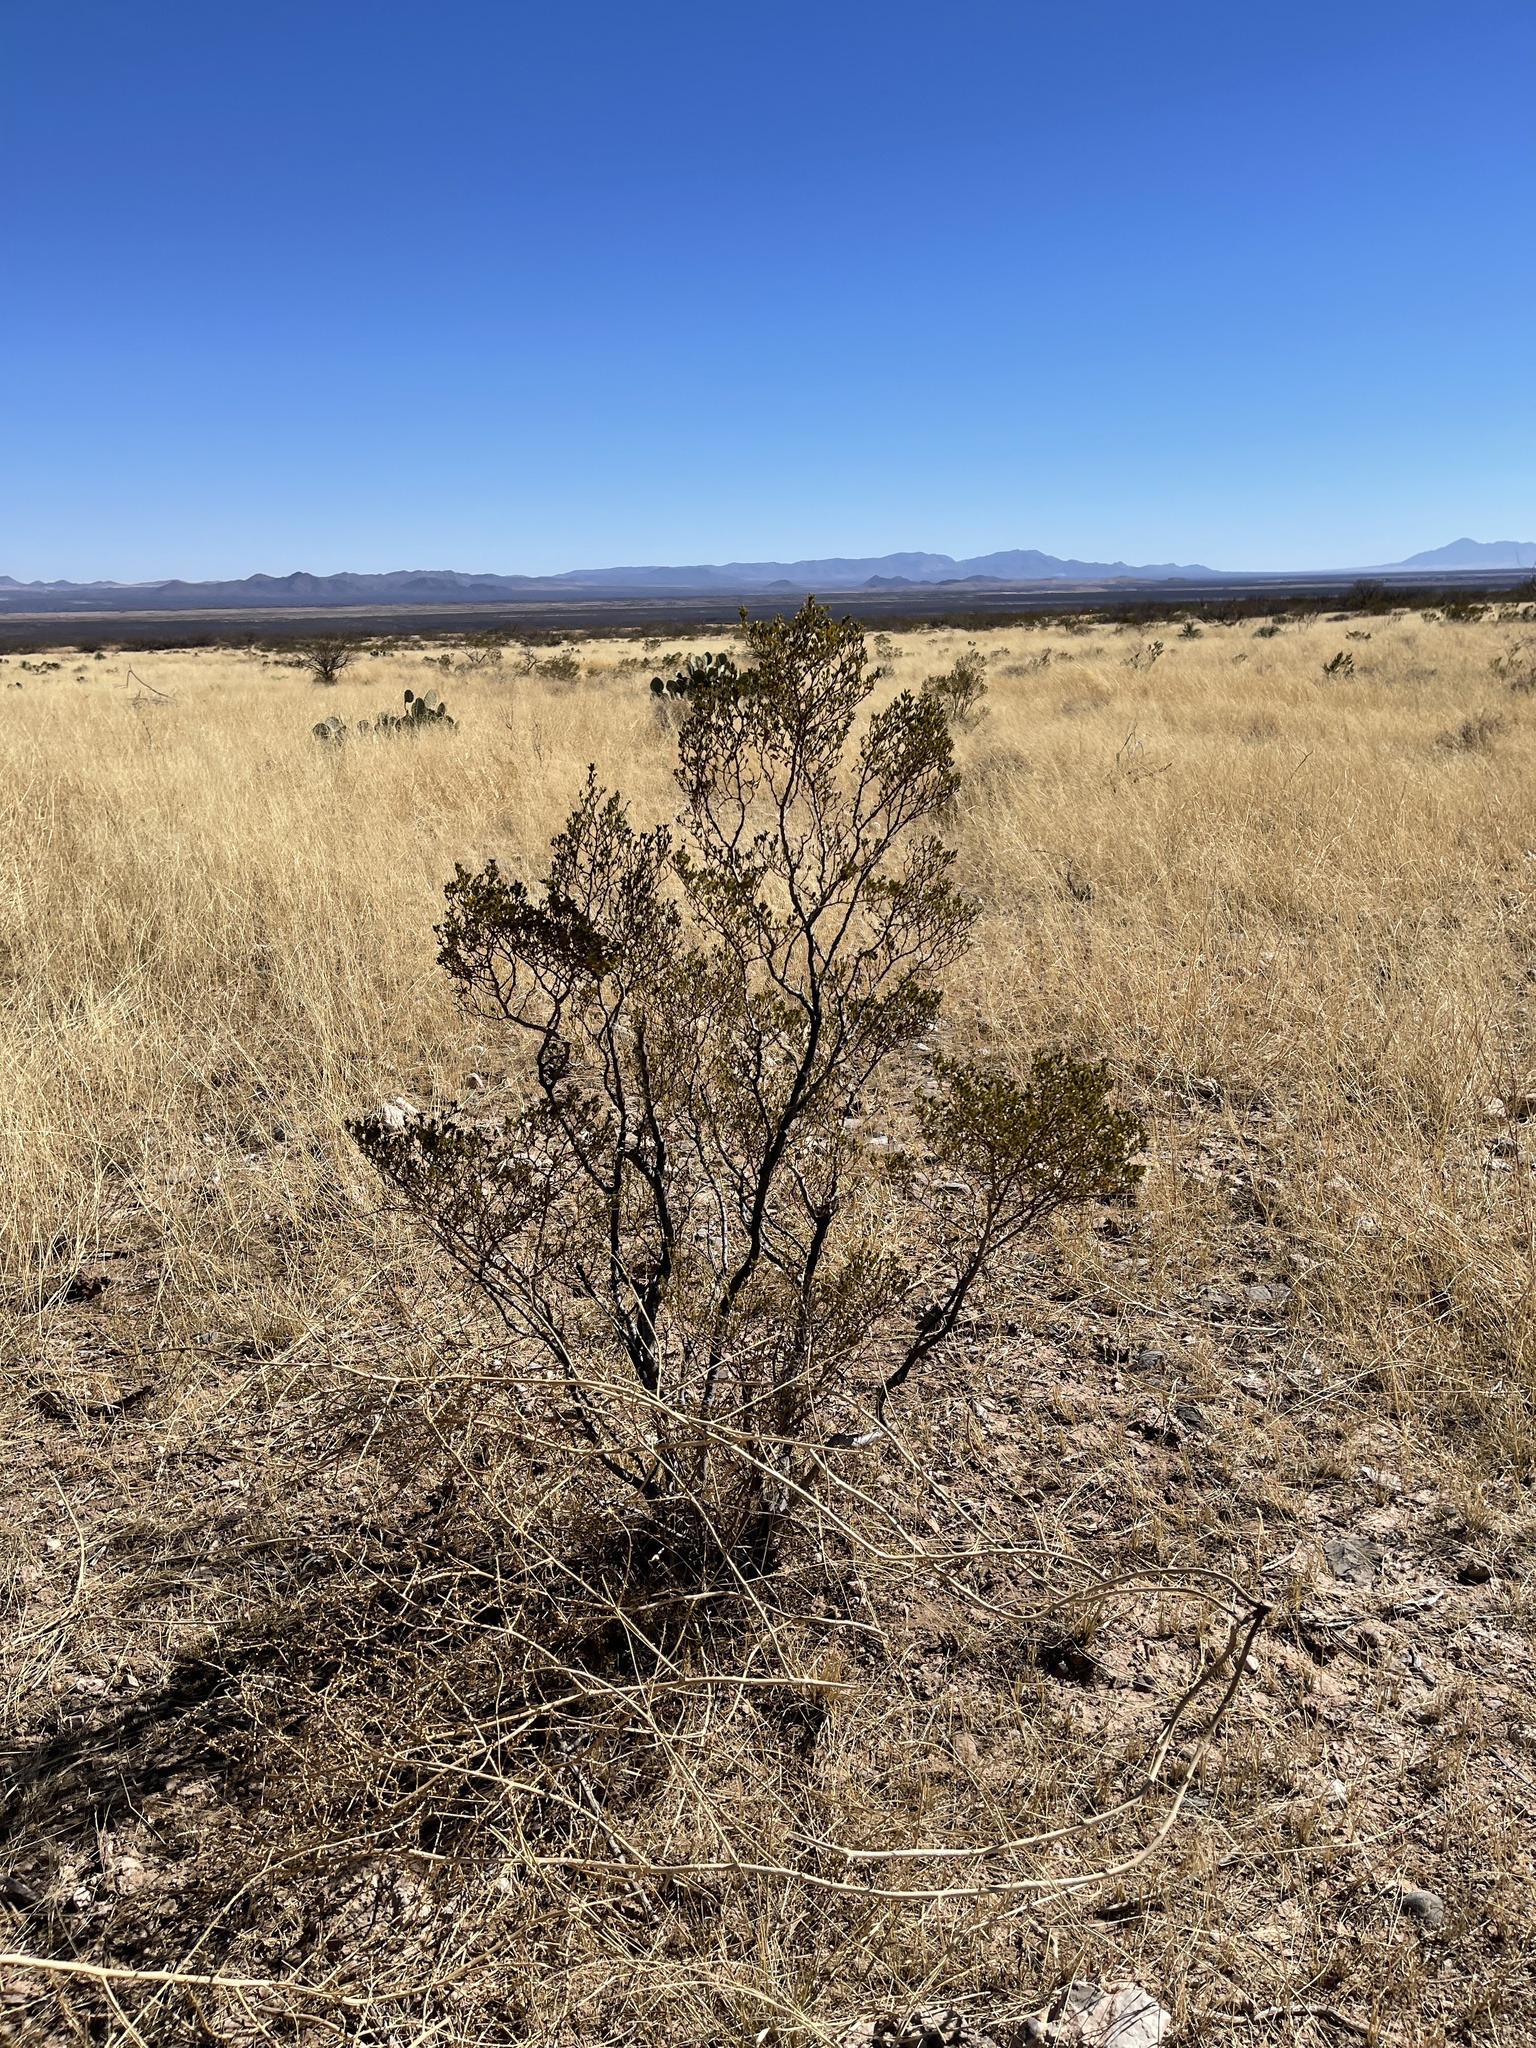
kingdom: Plantae
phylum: Tracheophyta
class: Magnoliopsida
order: Zygophyllales
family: Zygophyllaceae
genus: Larrea
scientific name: Larrea tridentata
